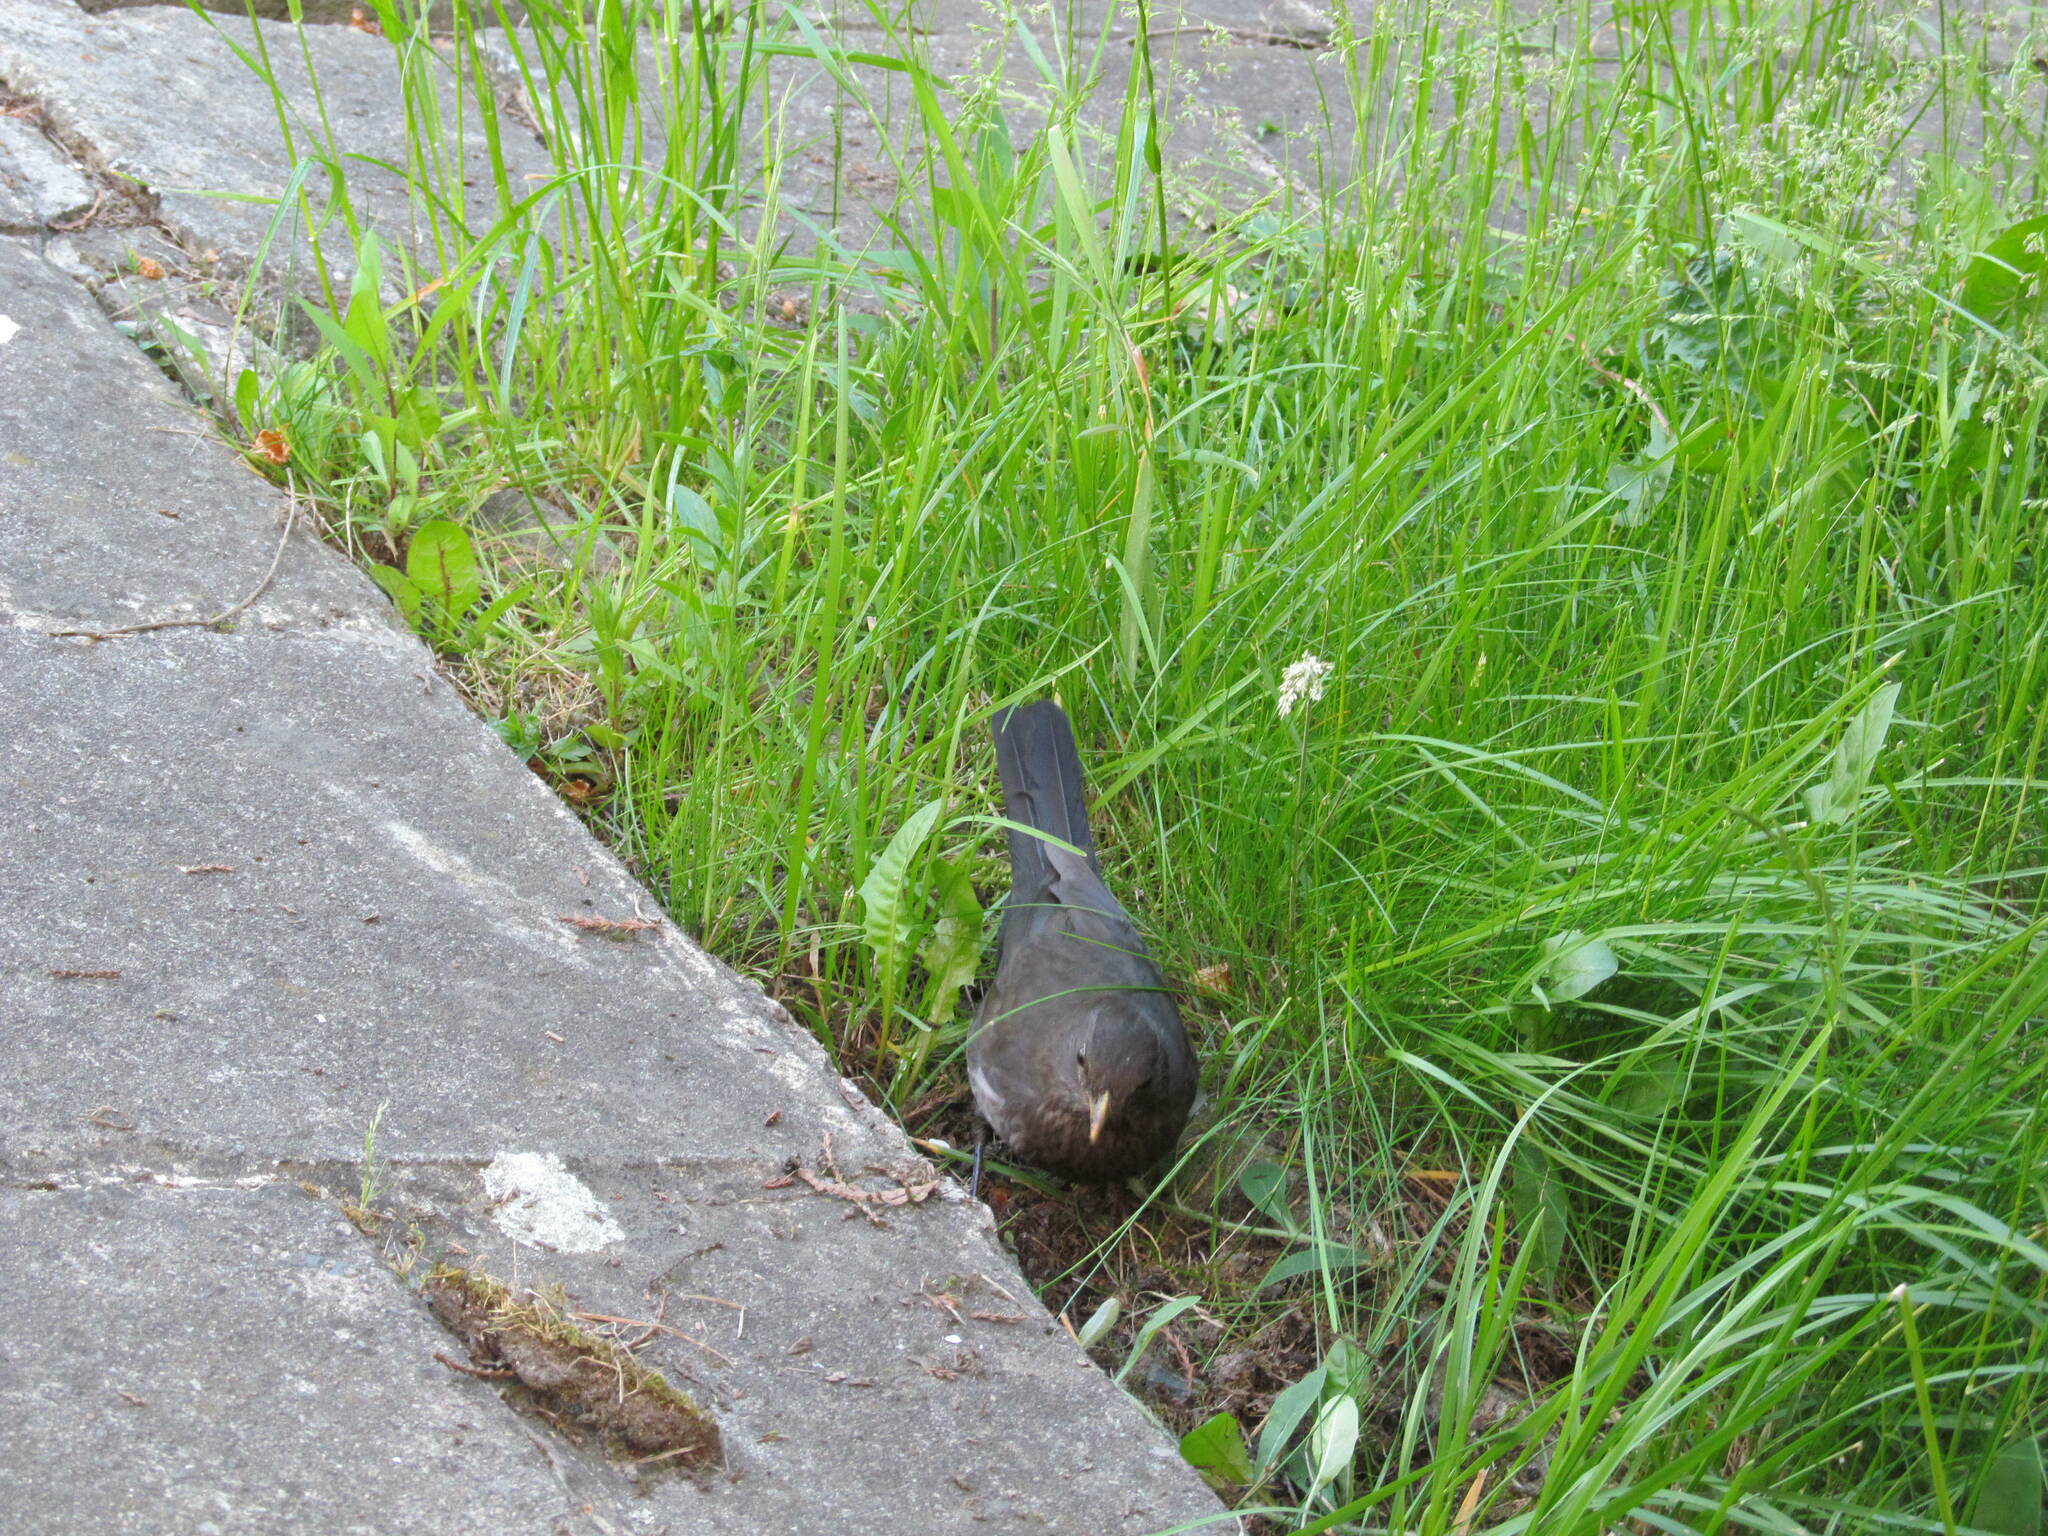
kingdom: Animalia
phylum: Chordata
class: Aves
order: Passeriformes
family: Turdidae
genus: Turdus
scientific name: Turdus merula
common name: Common blackbird
